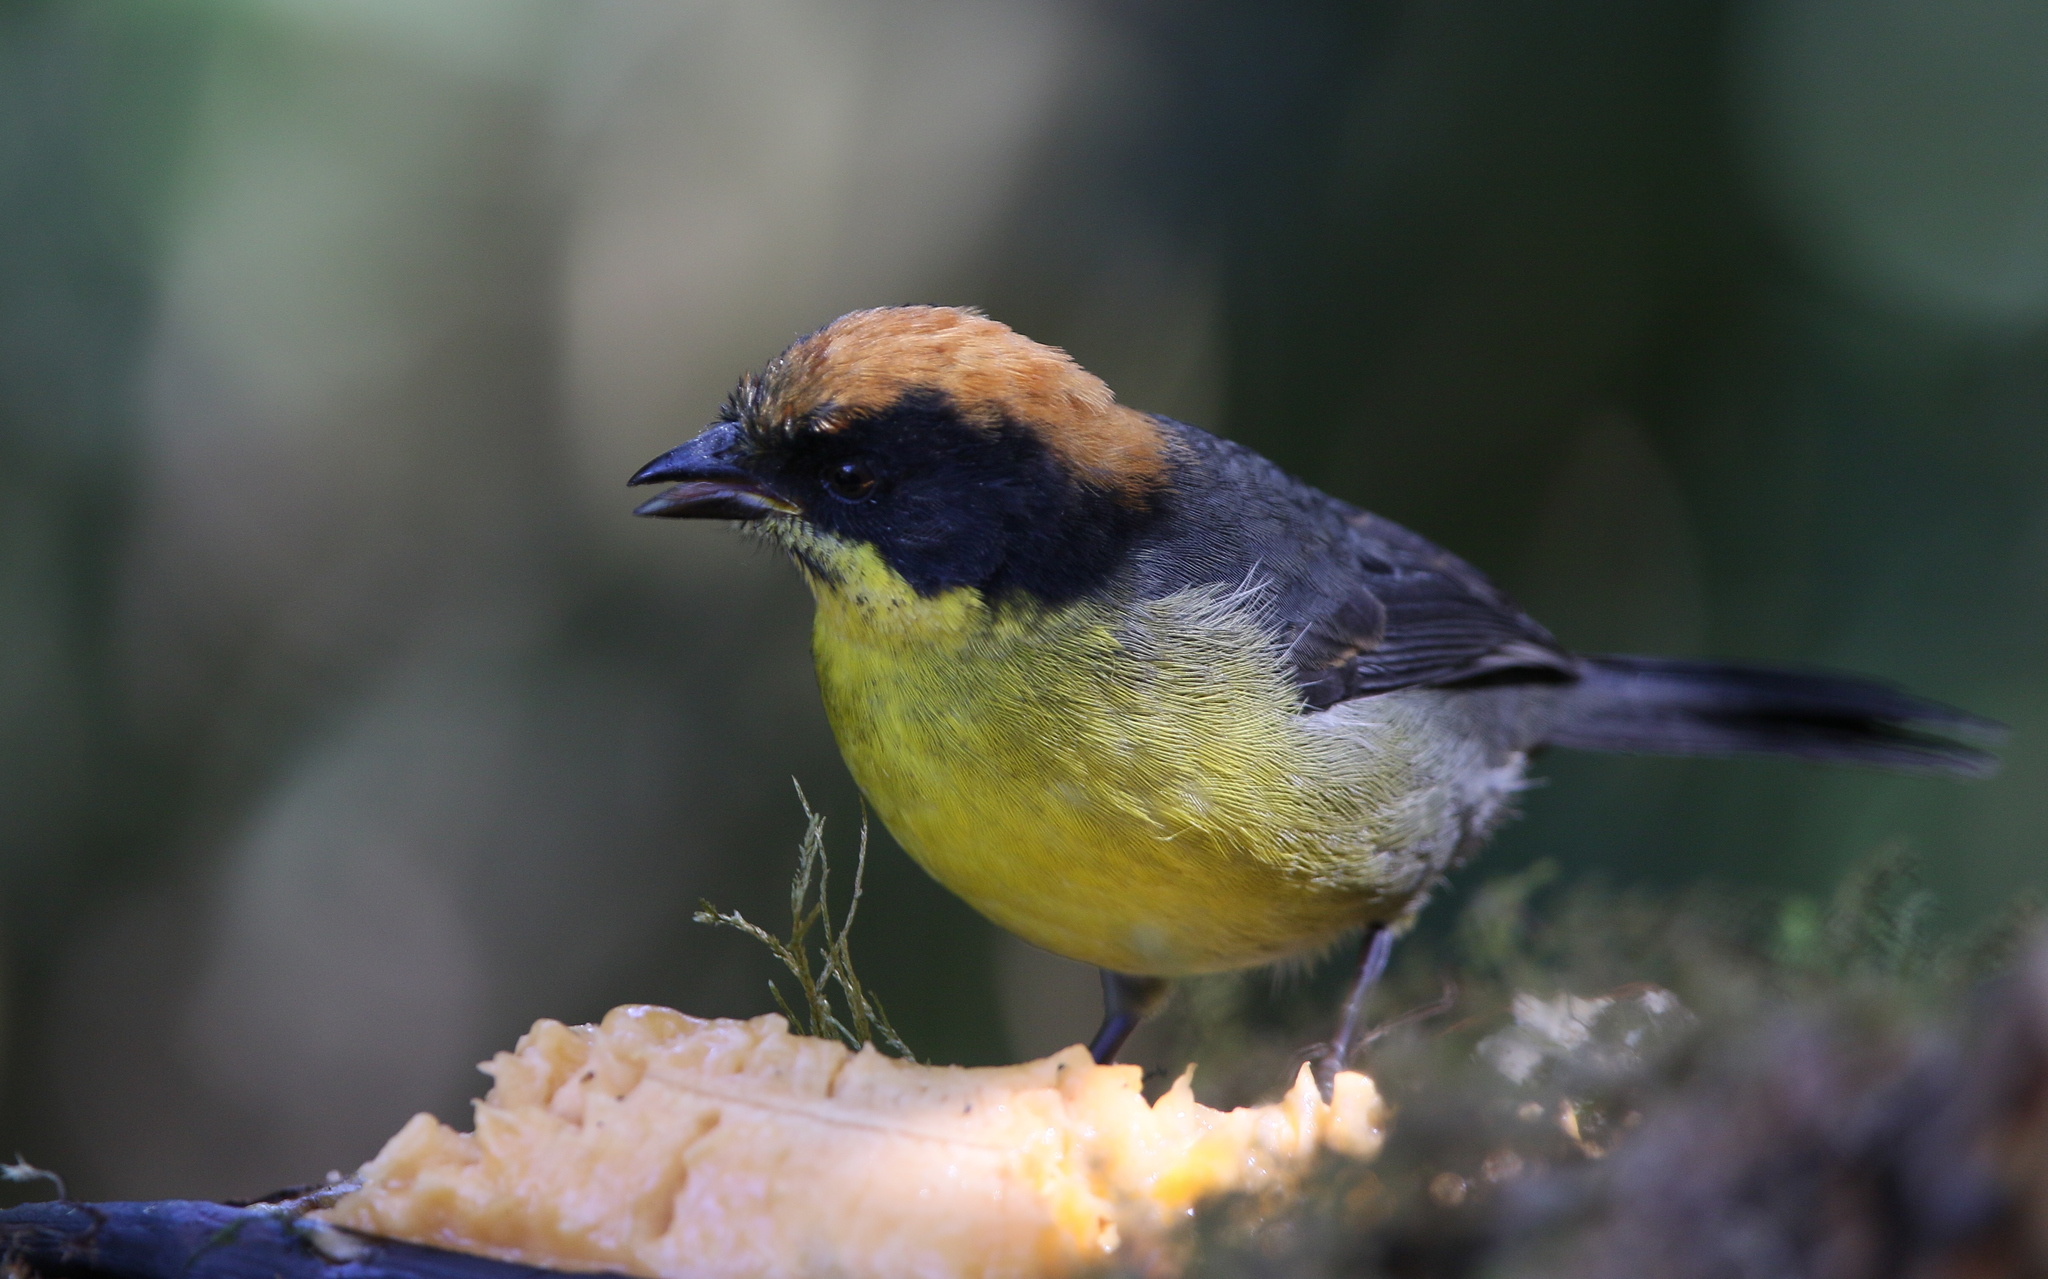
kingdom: Animalia
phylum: Chordata
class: Aves
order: Passeriformes
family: Passerellidae
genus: Atlapetes
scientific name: Atlapetes latinuchus
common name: Yellow-breasted brushfinch
